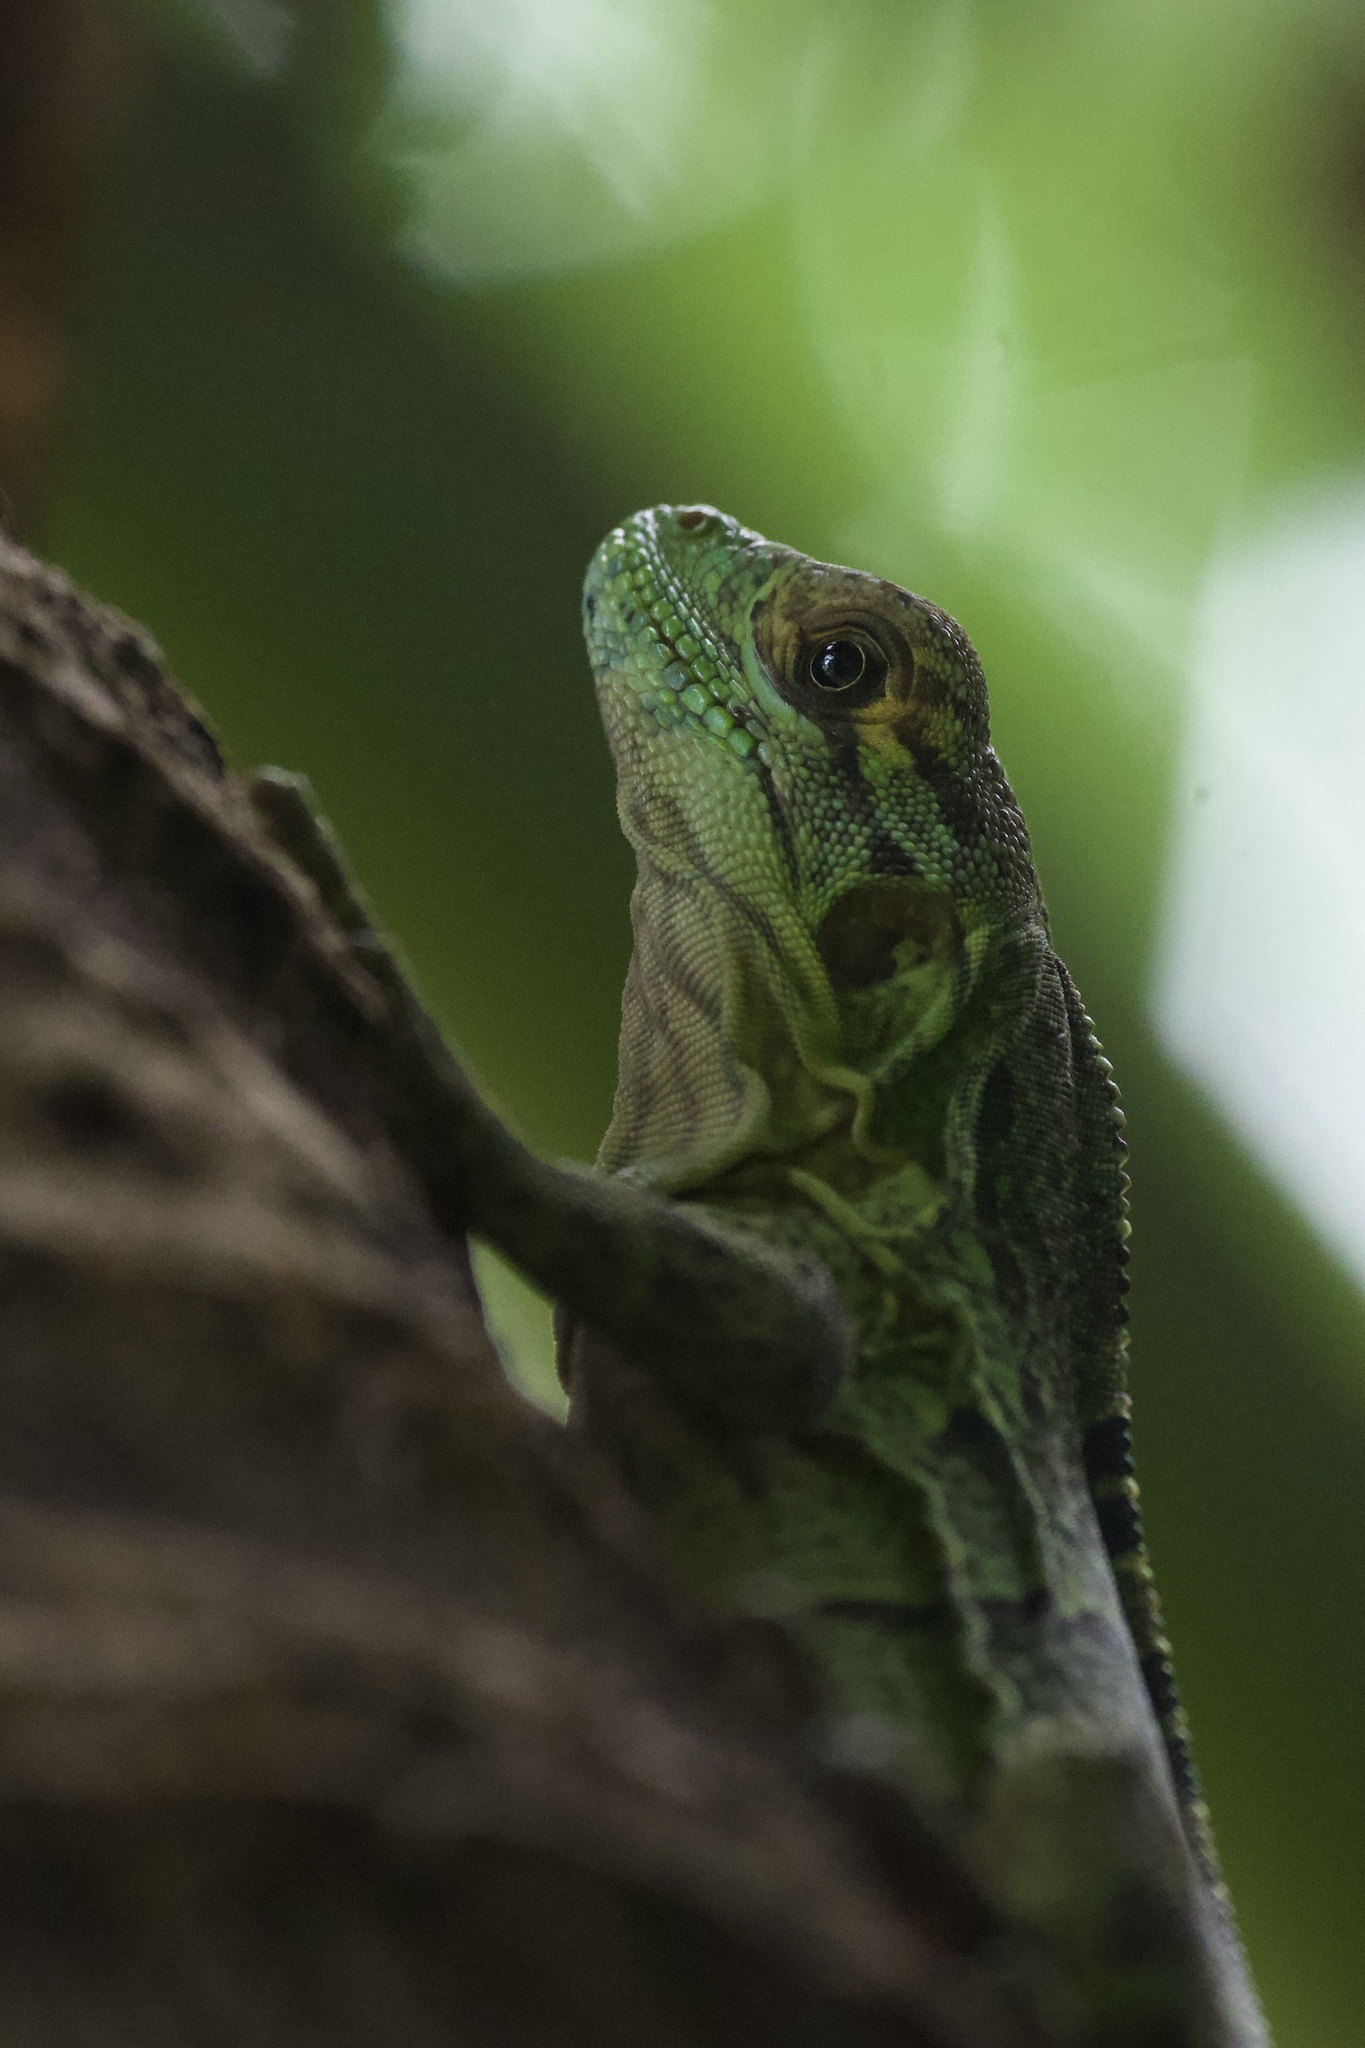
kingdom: Animalia
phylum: Chordata
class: Squamata
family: Iguanidae
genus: Ctenosaura
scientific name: Ctenosaura similis
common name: Black spiny-tailed iguana
